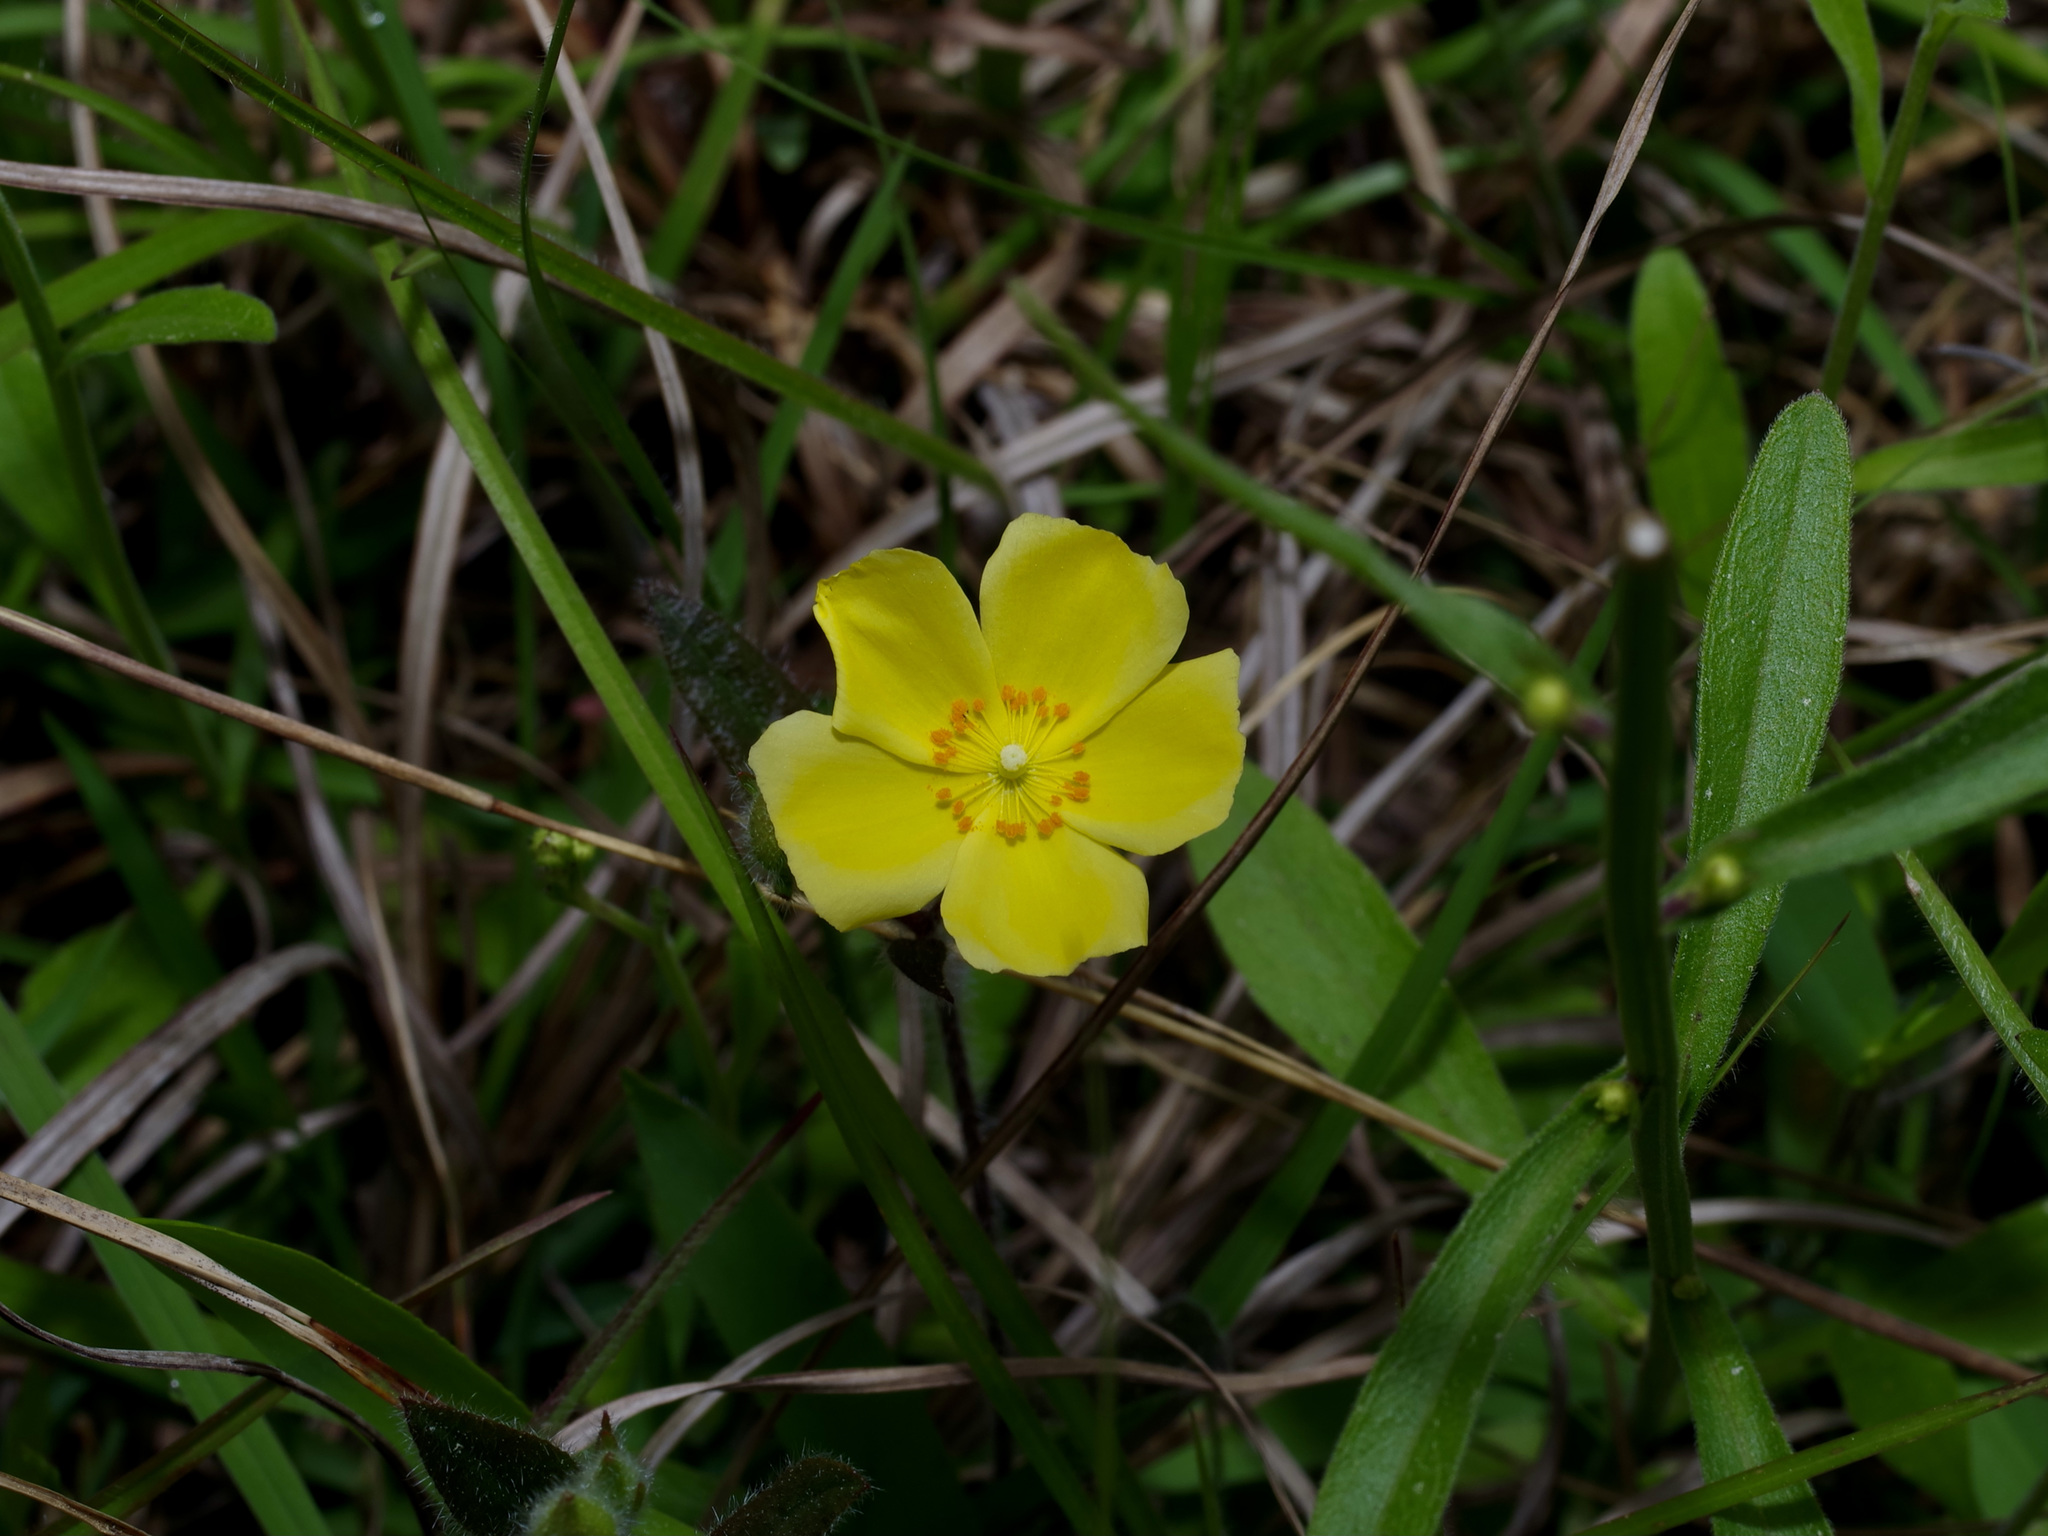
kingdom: Plantae
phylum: Tracheophyta
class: Magnoliopsida
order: Malvales
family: Cistaceae
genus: Crocanthemum
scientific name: Crocanthemum carolinianum
